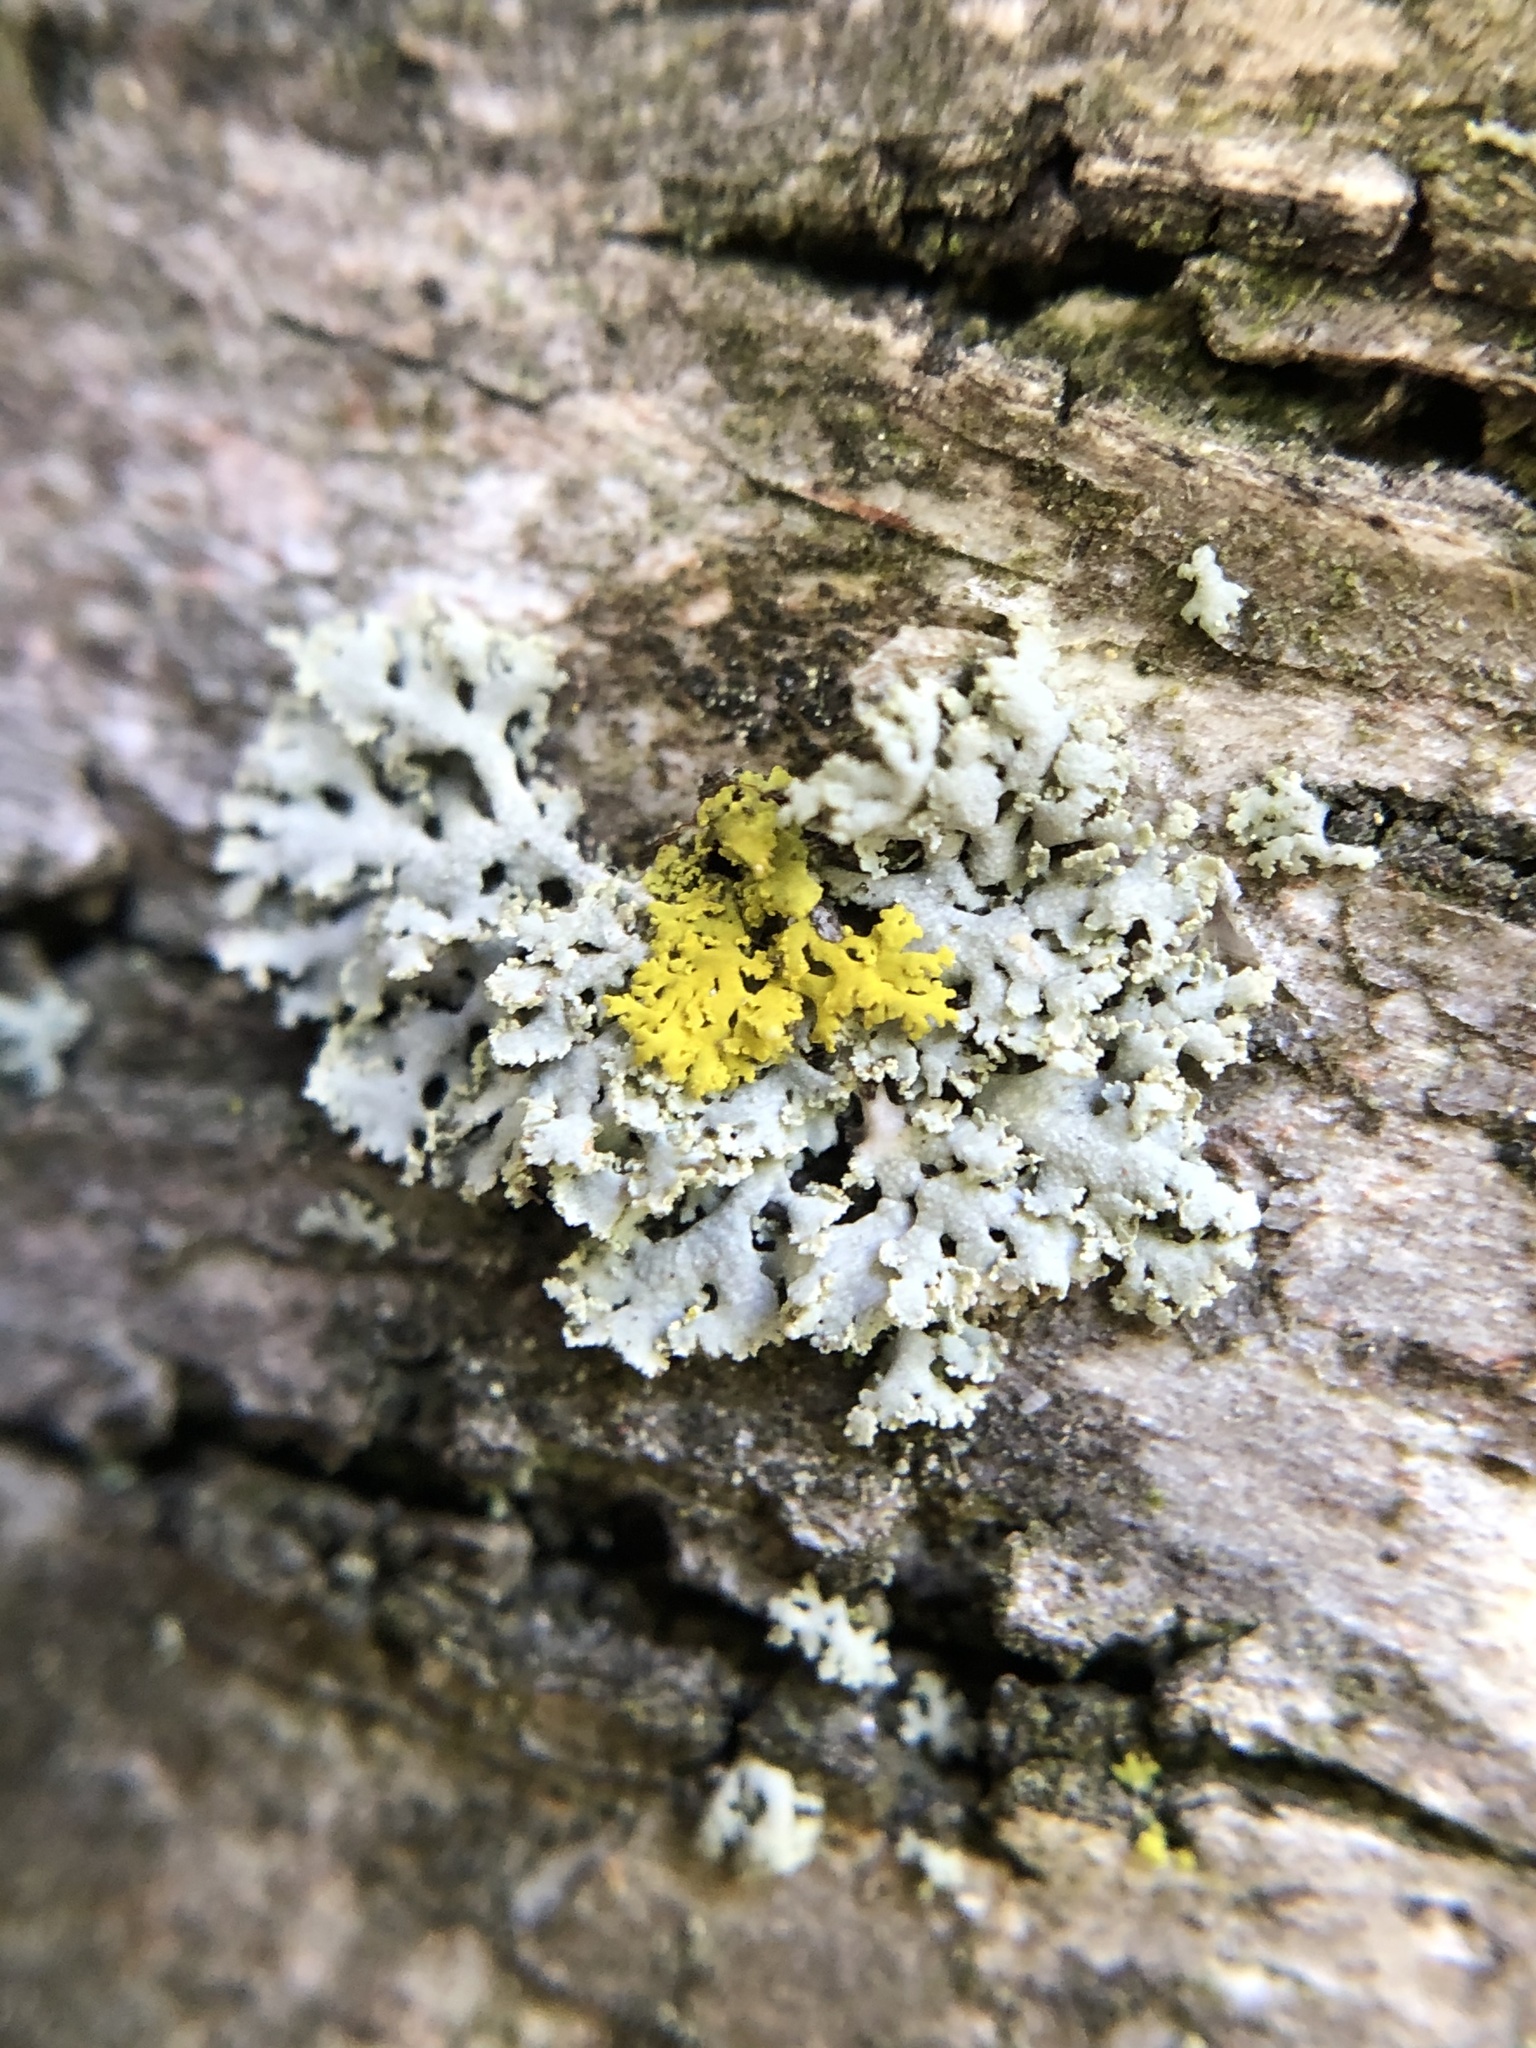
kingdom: Fungi
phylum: Ascomycota
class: Lecanoromycetes
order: Caliciales
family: Physciaceae
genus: Physcia
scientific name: Physcia adscendens
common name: Hooded rosette lichen
